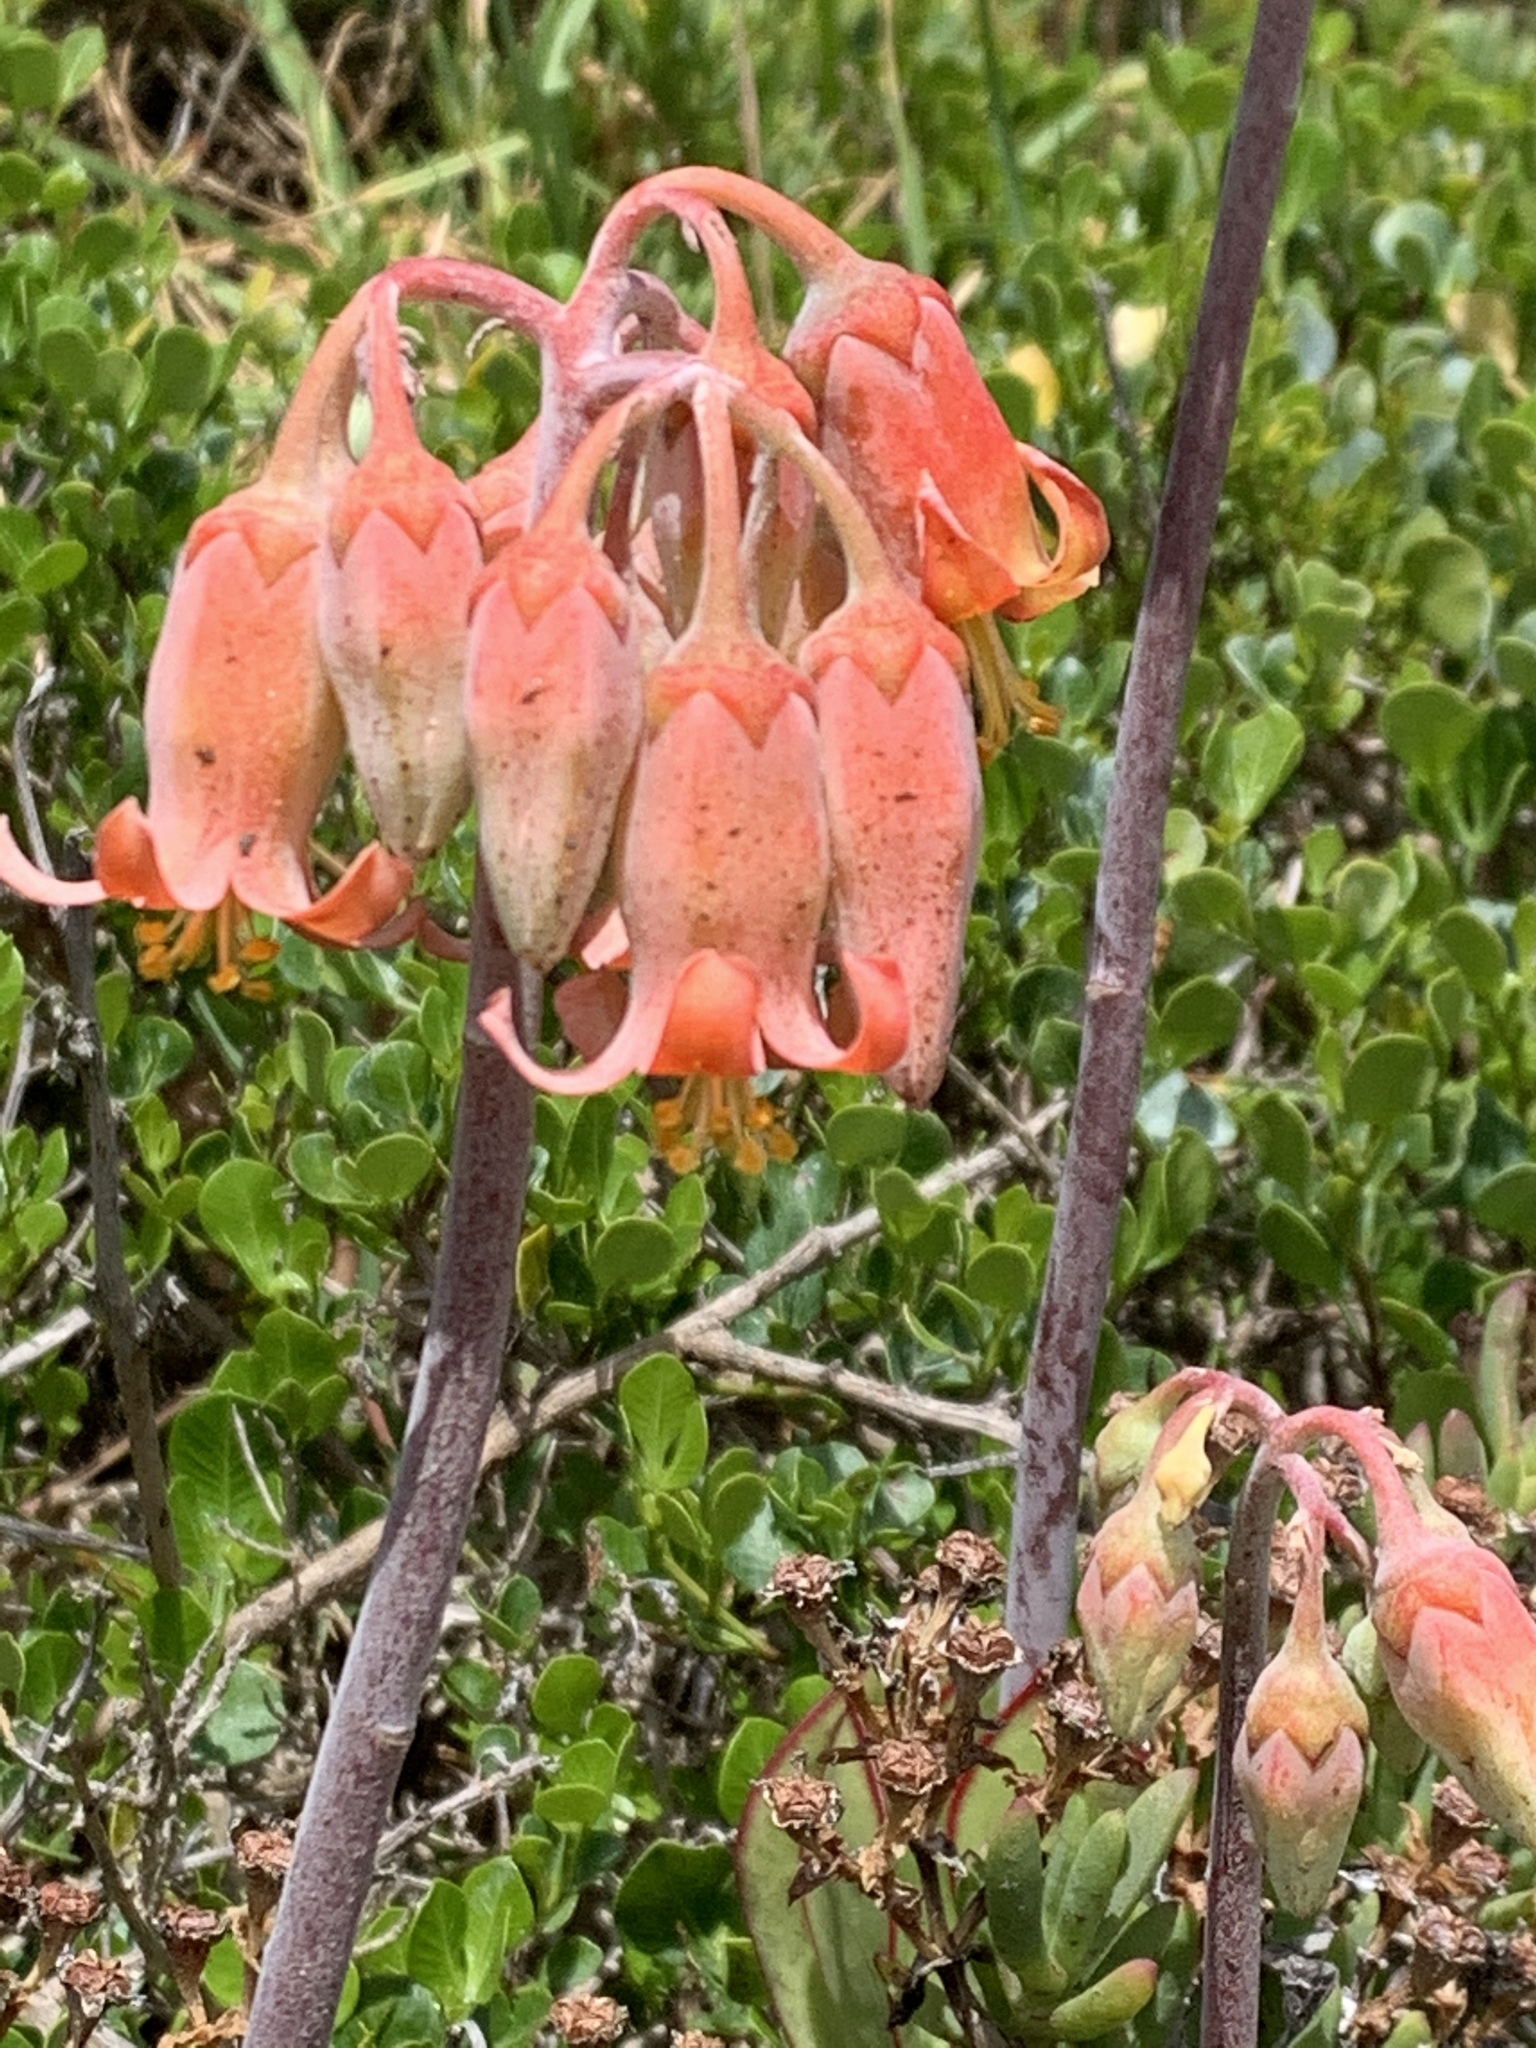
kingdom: Plantae
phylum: Tracheophyta
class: Magnoliopsida
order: Saxifragales
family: Crassulaceae
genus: Cotyledon
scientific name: Cotyledon orbiculata
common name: Pig's ear
